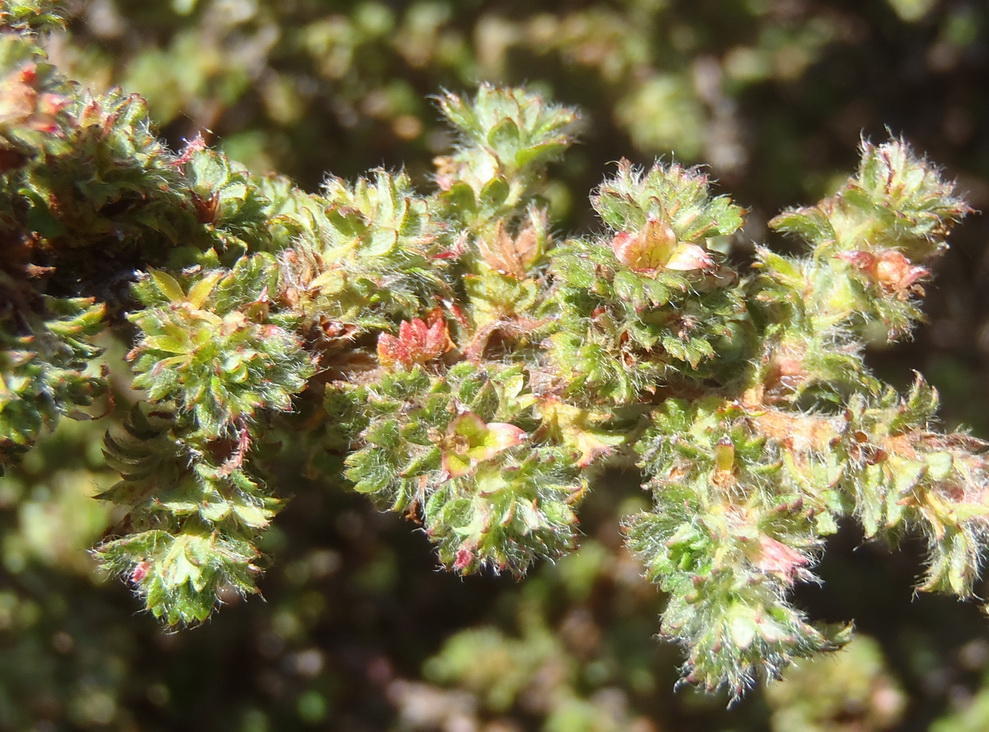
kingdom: Plantae
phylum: Tracheophyta
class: Magnoliopsida
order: Rosales
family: Rosaceae
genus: Cliffortia
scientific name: Cliffortia filicaulis
